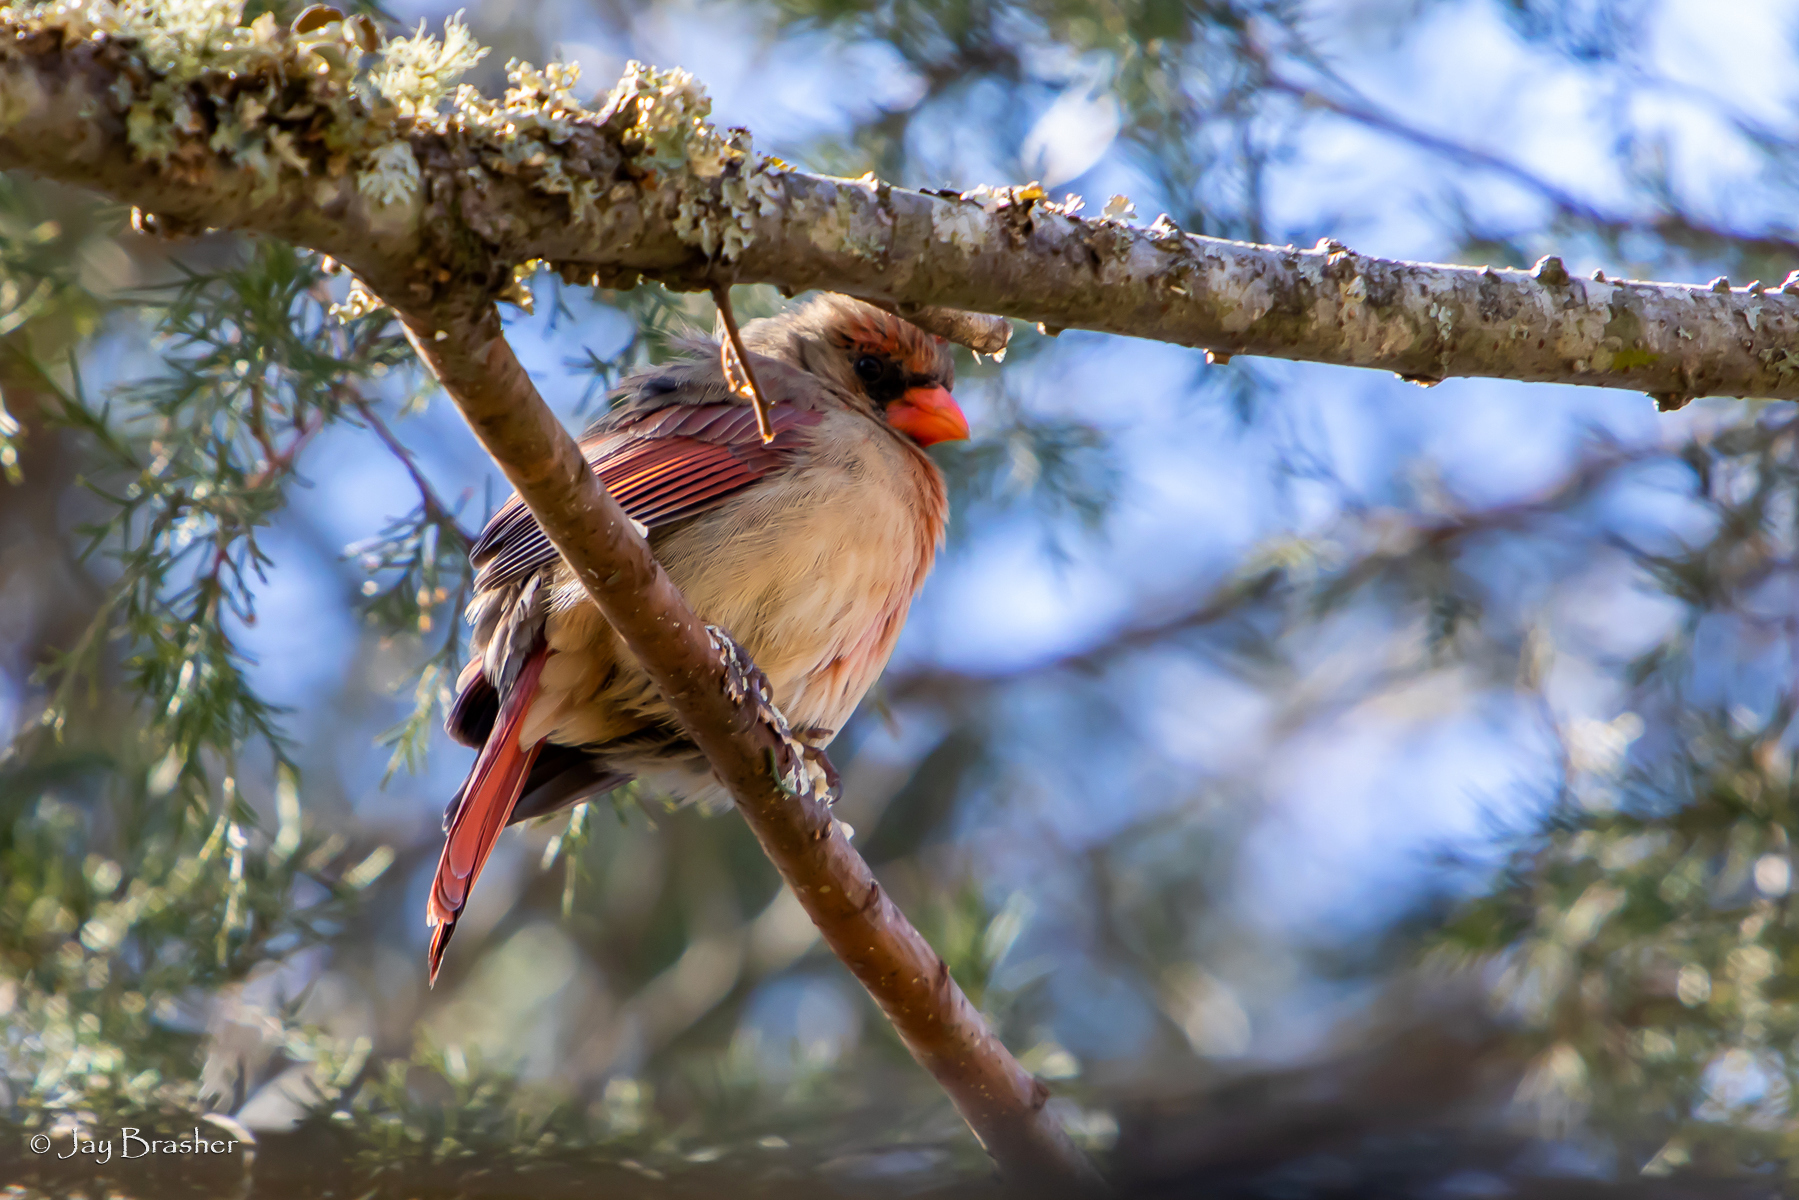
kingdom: Animalia
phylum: Chordata
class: Aves
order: Passeriformes
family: Cardinalidae
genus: Cardinalis
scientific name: Cardinalis cardinalis
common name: Northern cardinal
